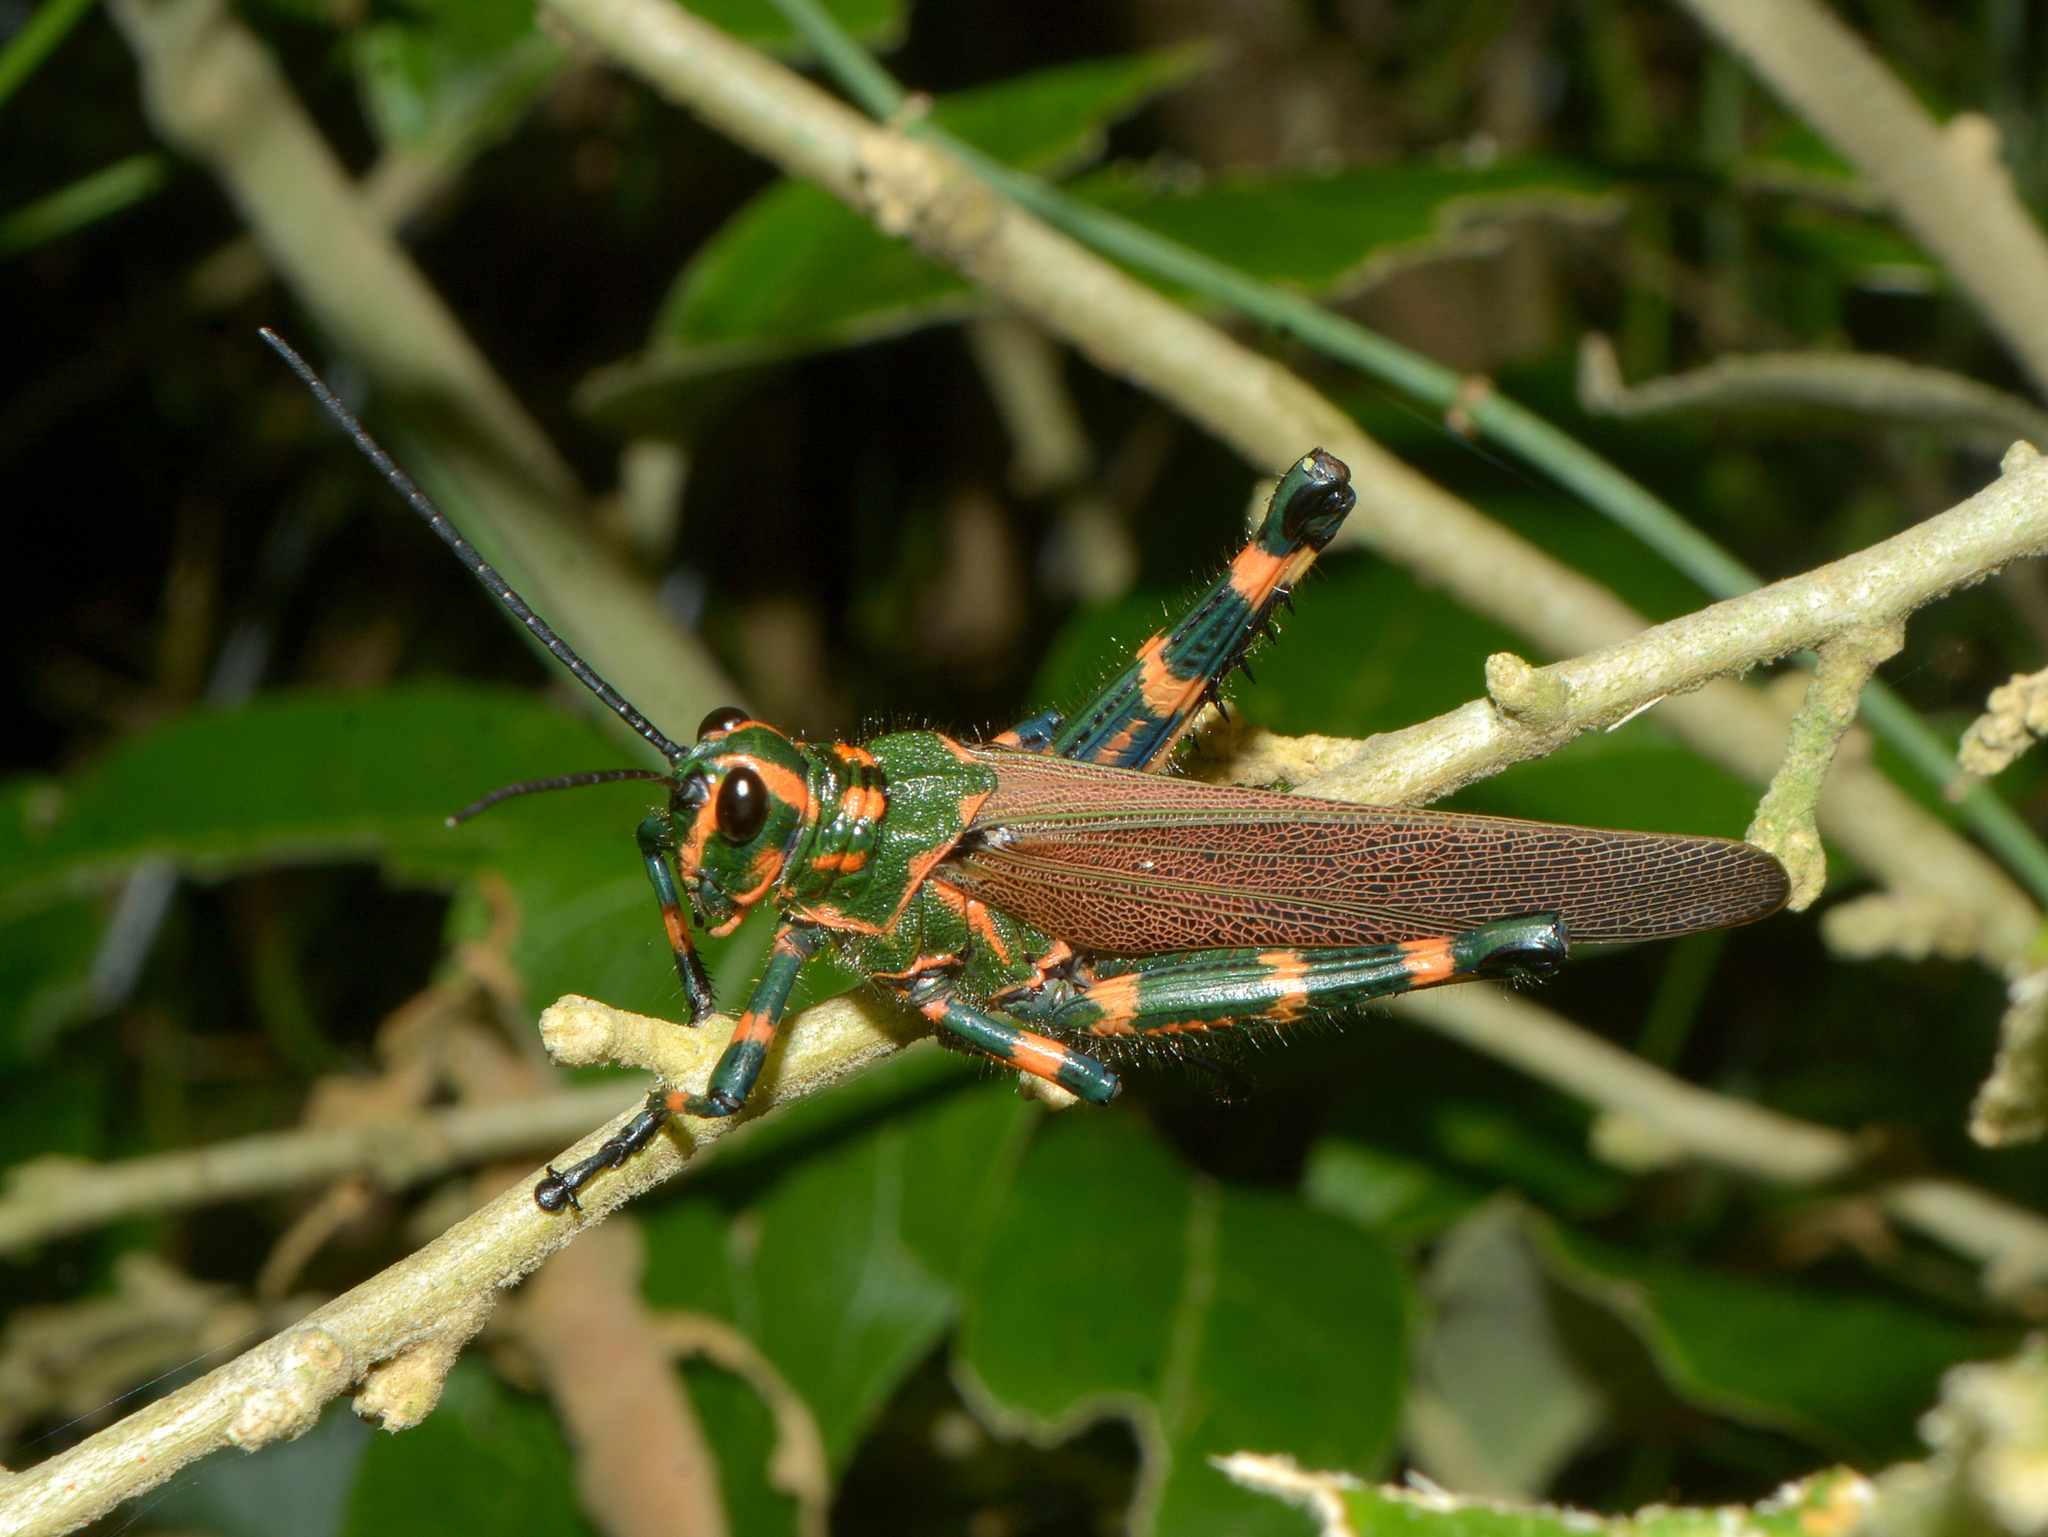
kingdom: Animalia
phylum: Arthropoda
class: Insecta
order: Orthoptera
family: Romaleidae
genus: Chromacris
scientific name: Chromacris speciosa
